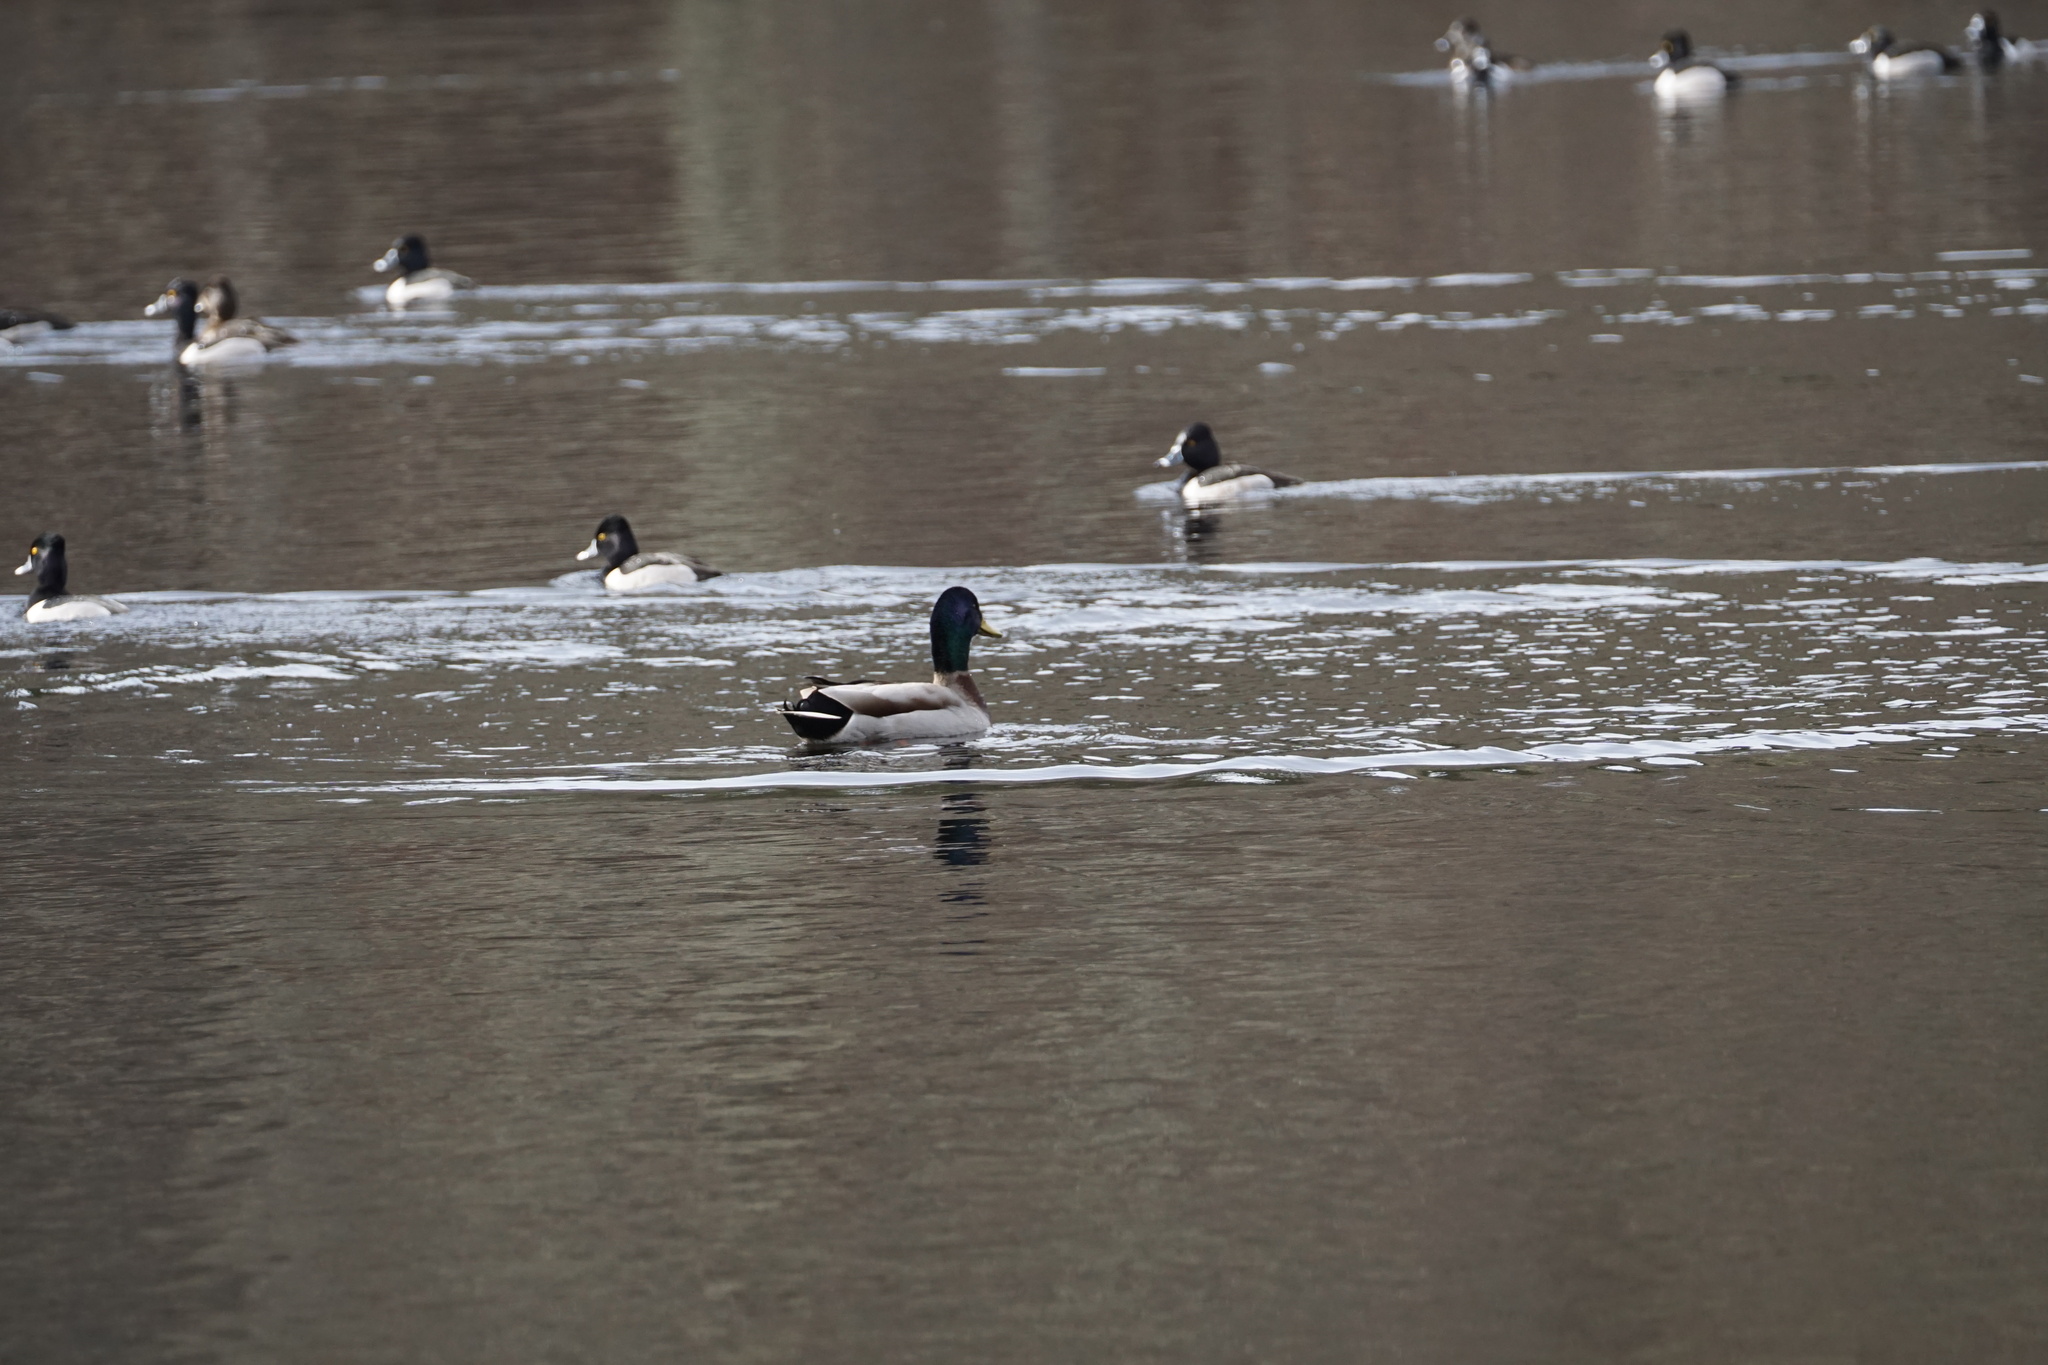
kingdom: Animalia
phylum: Chordata
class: Aves
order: Anseriformes
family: Anatidae
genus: Anas
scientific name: Anas platyrhynchos
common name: Mallard
